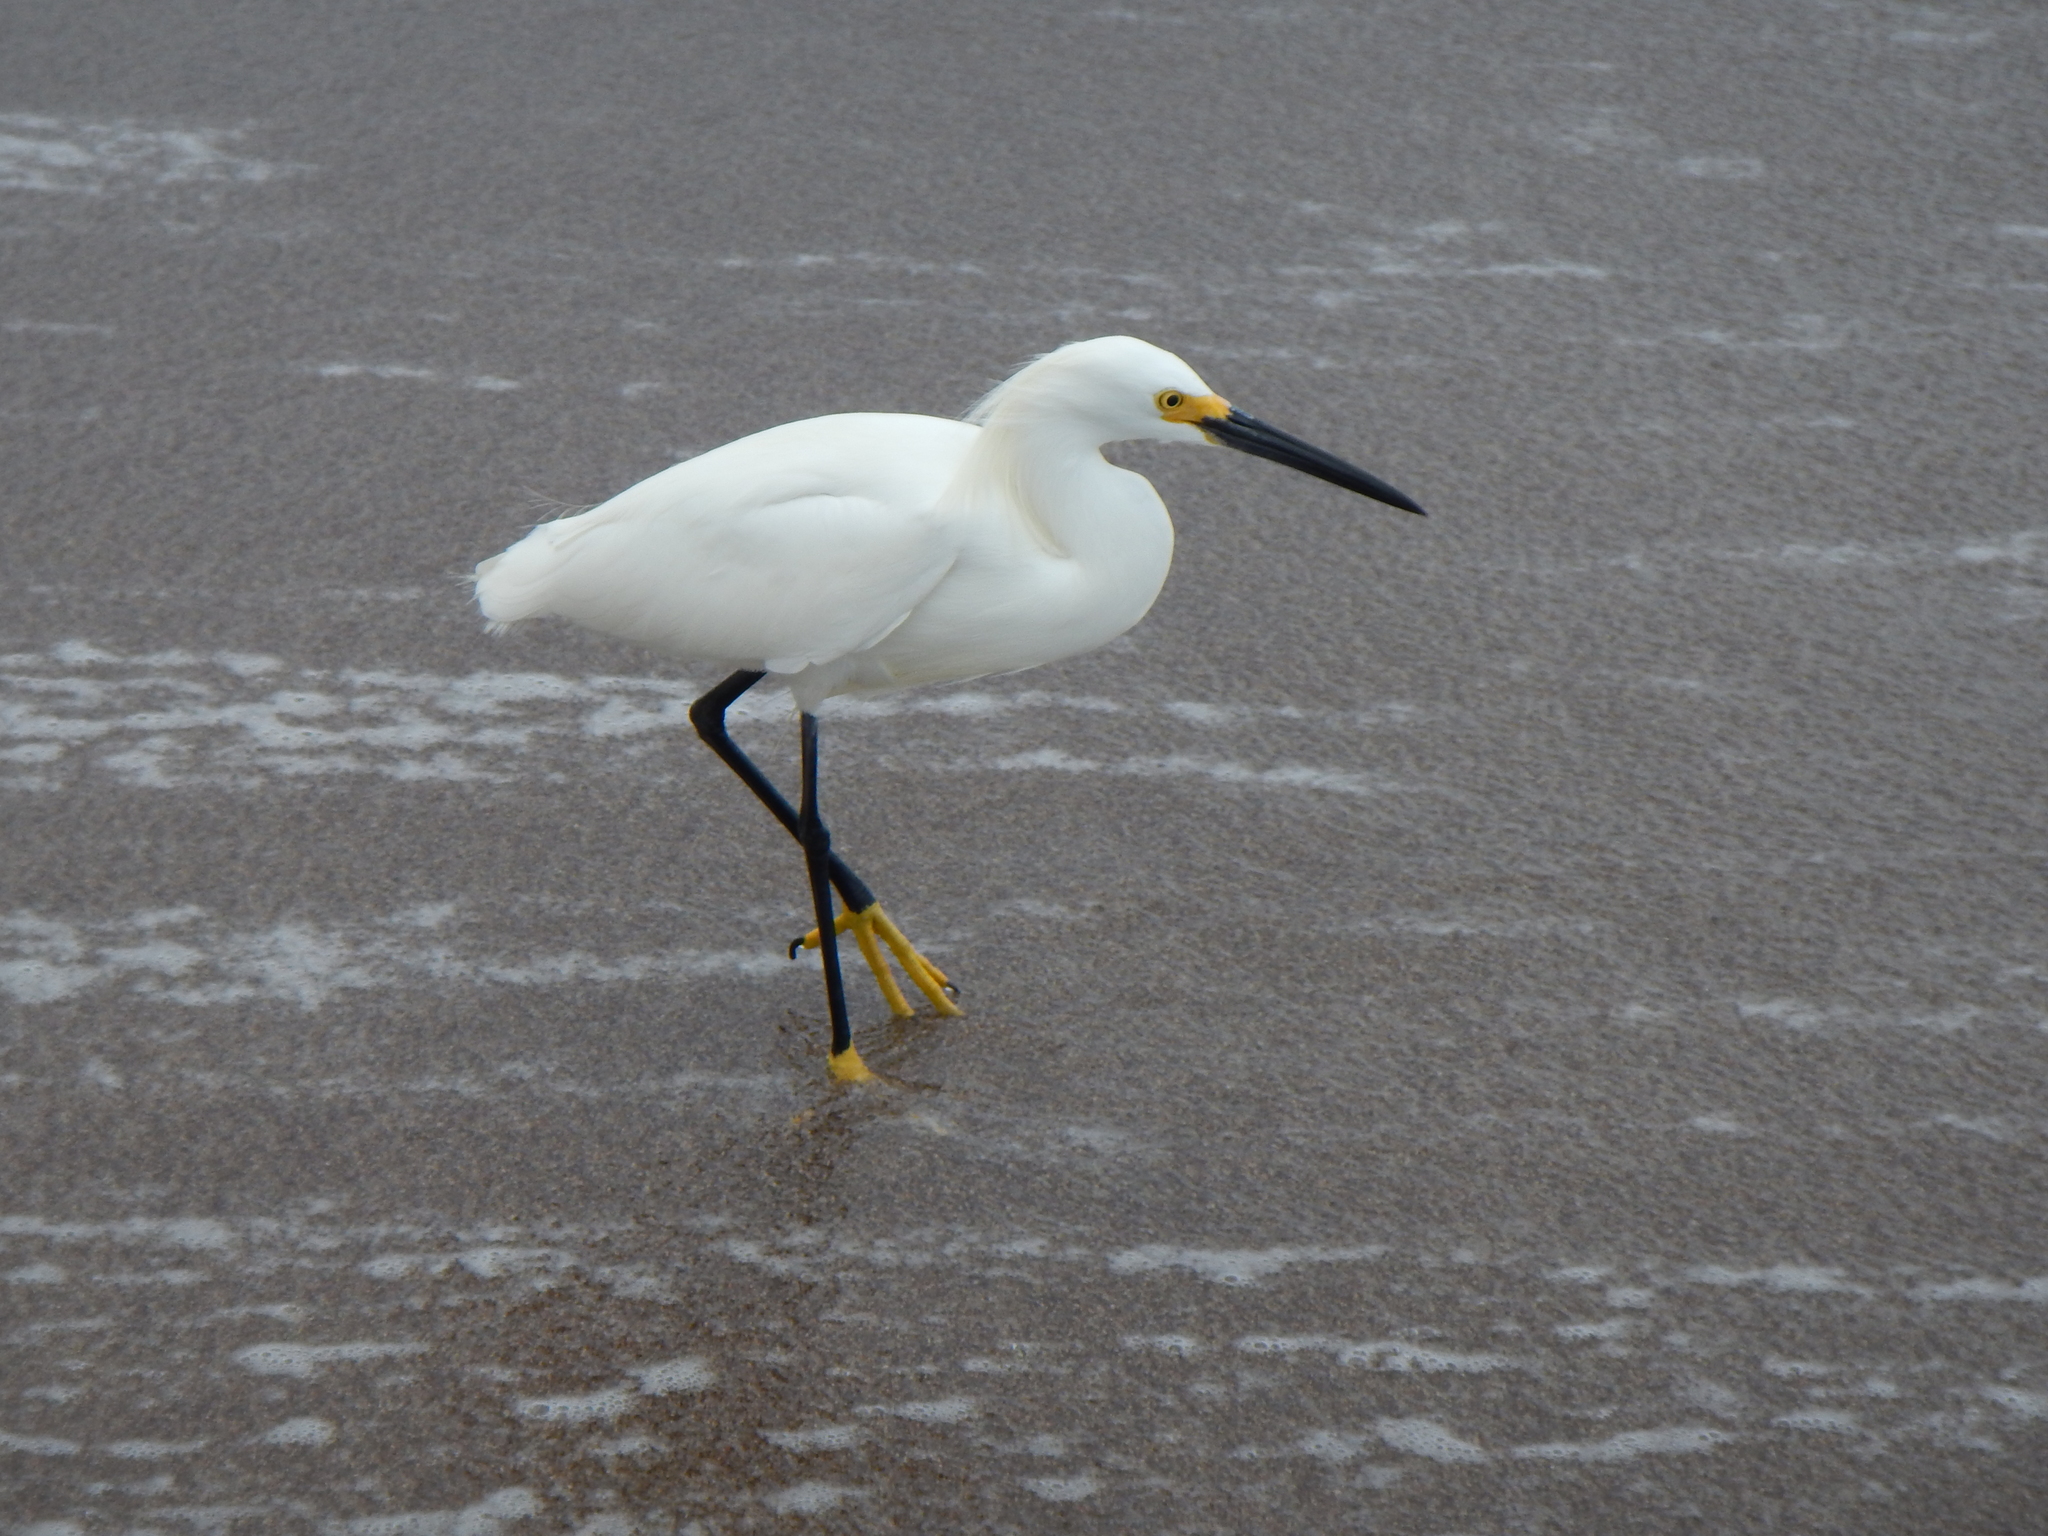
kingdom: Animalia
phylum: Chordata
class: Aves
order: Pelecaniformes
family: Ardeidae
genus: Egretta
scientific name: Egretta thula
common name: Snowy egret
